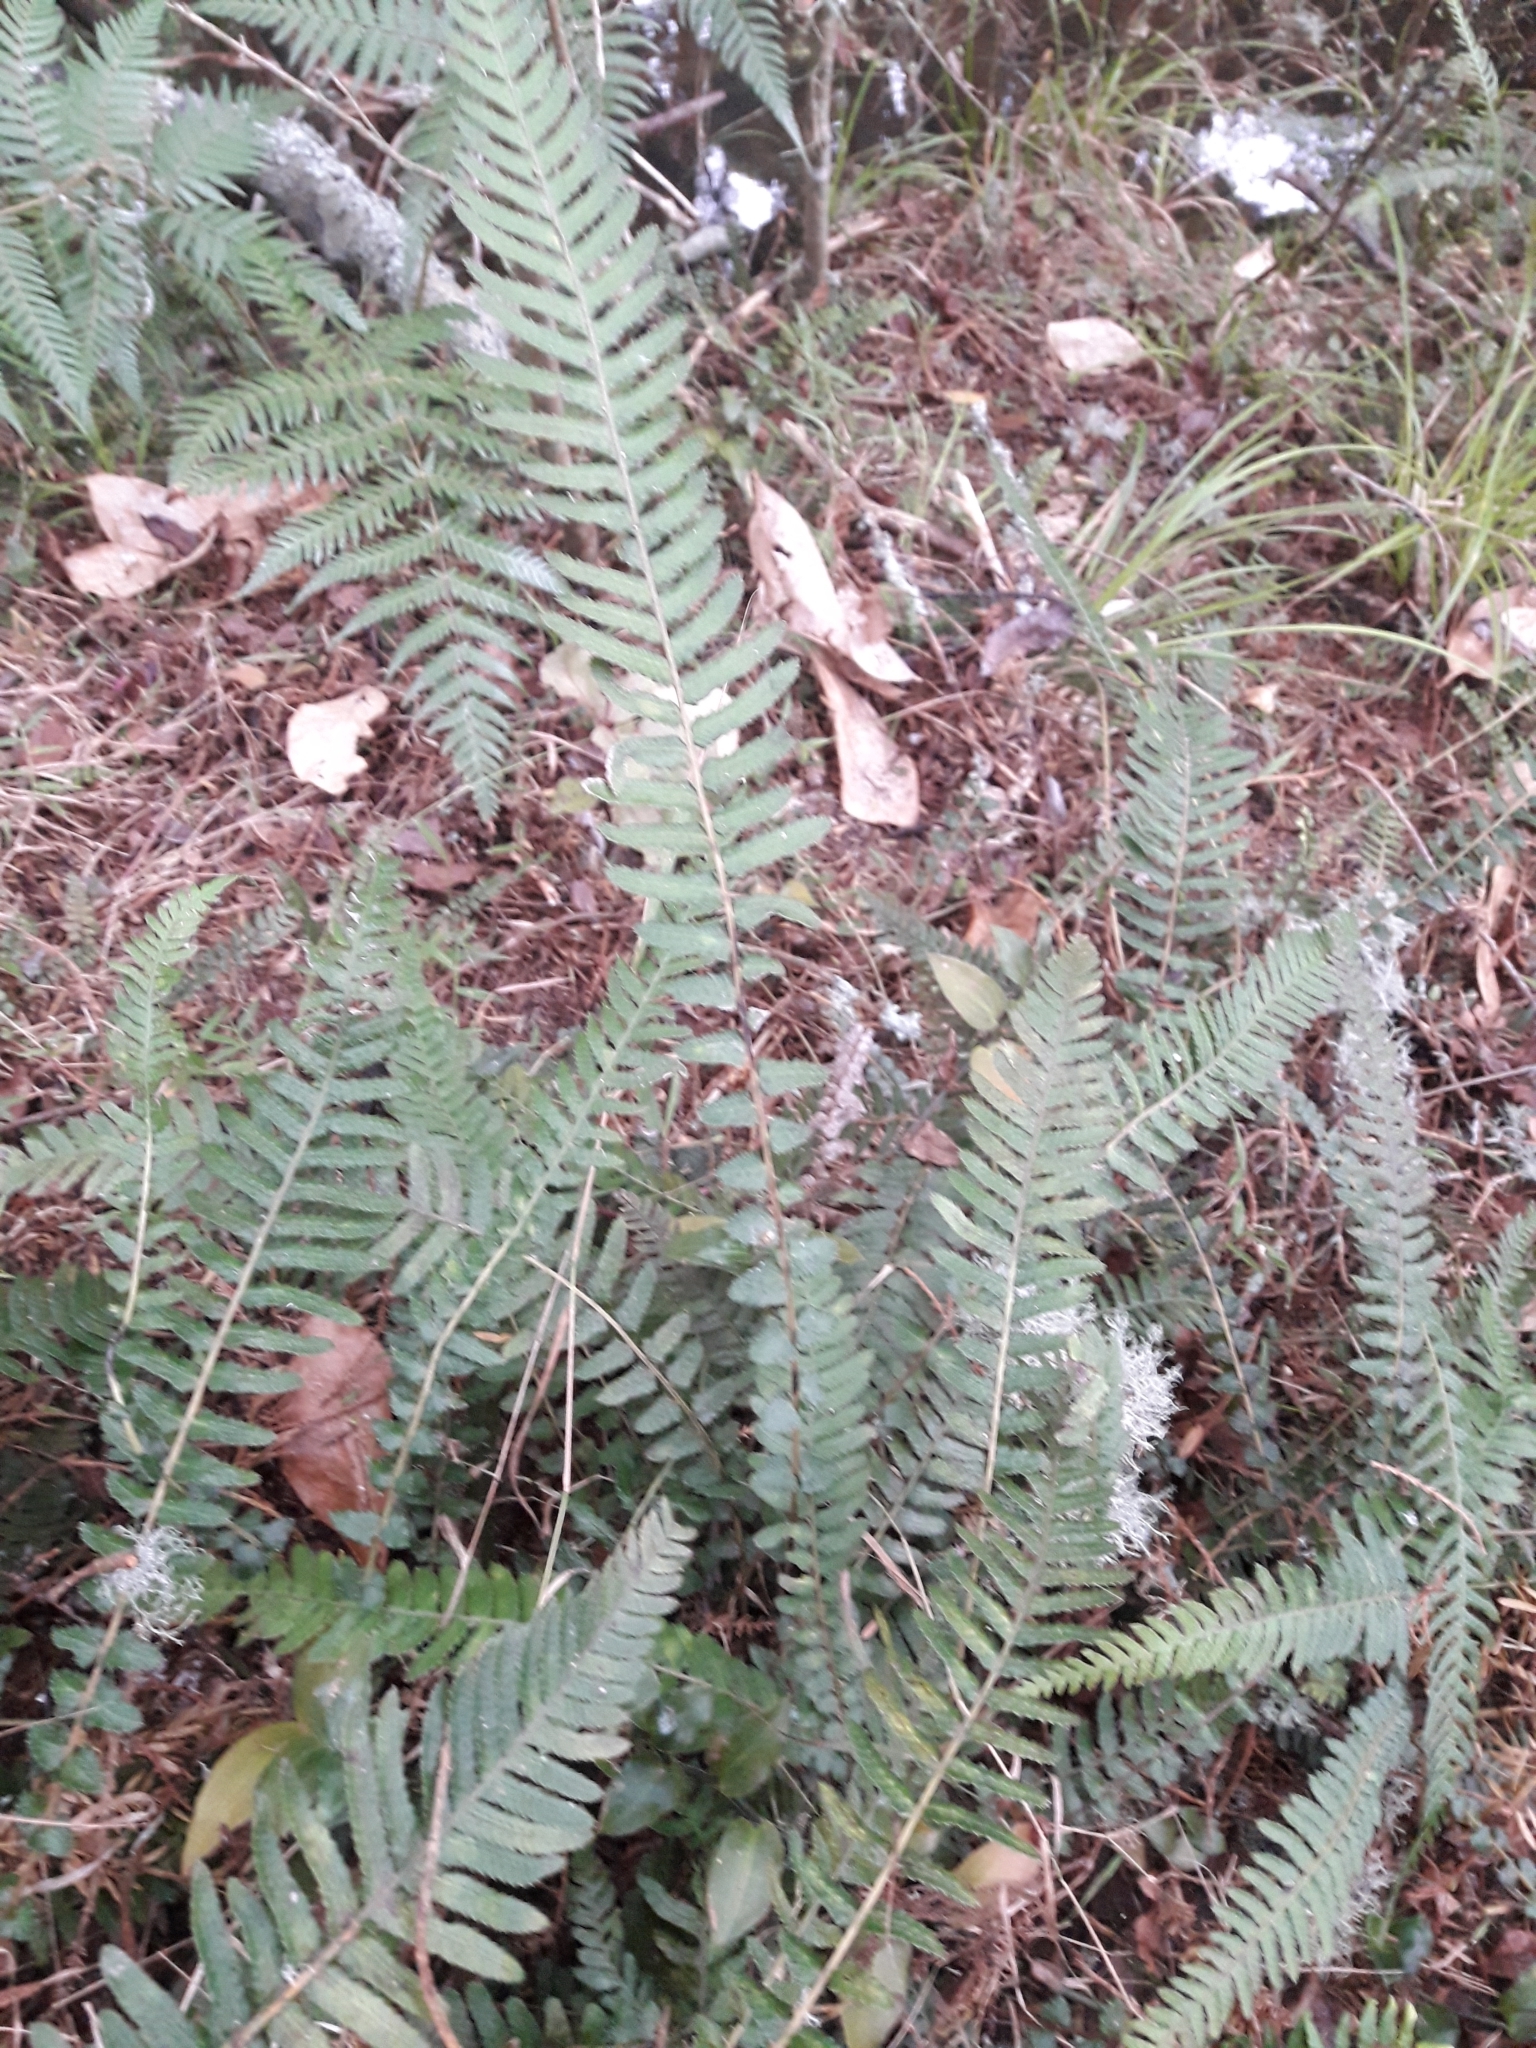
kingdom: Plantae
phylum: Tracheophyta
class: Polypodiopsida
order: Polypodiales
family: Blechnaceae
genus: Doodia
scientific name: Doodia australis
